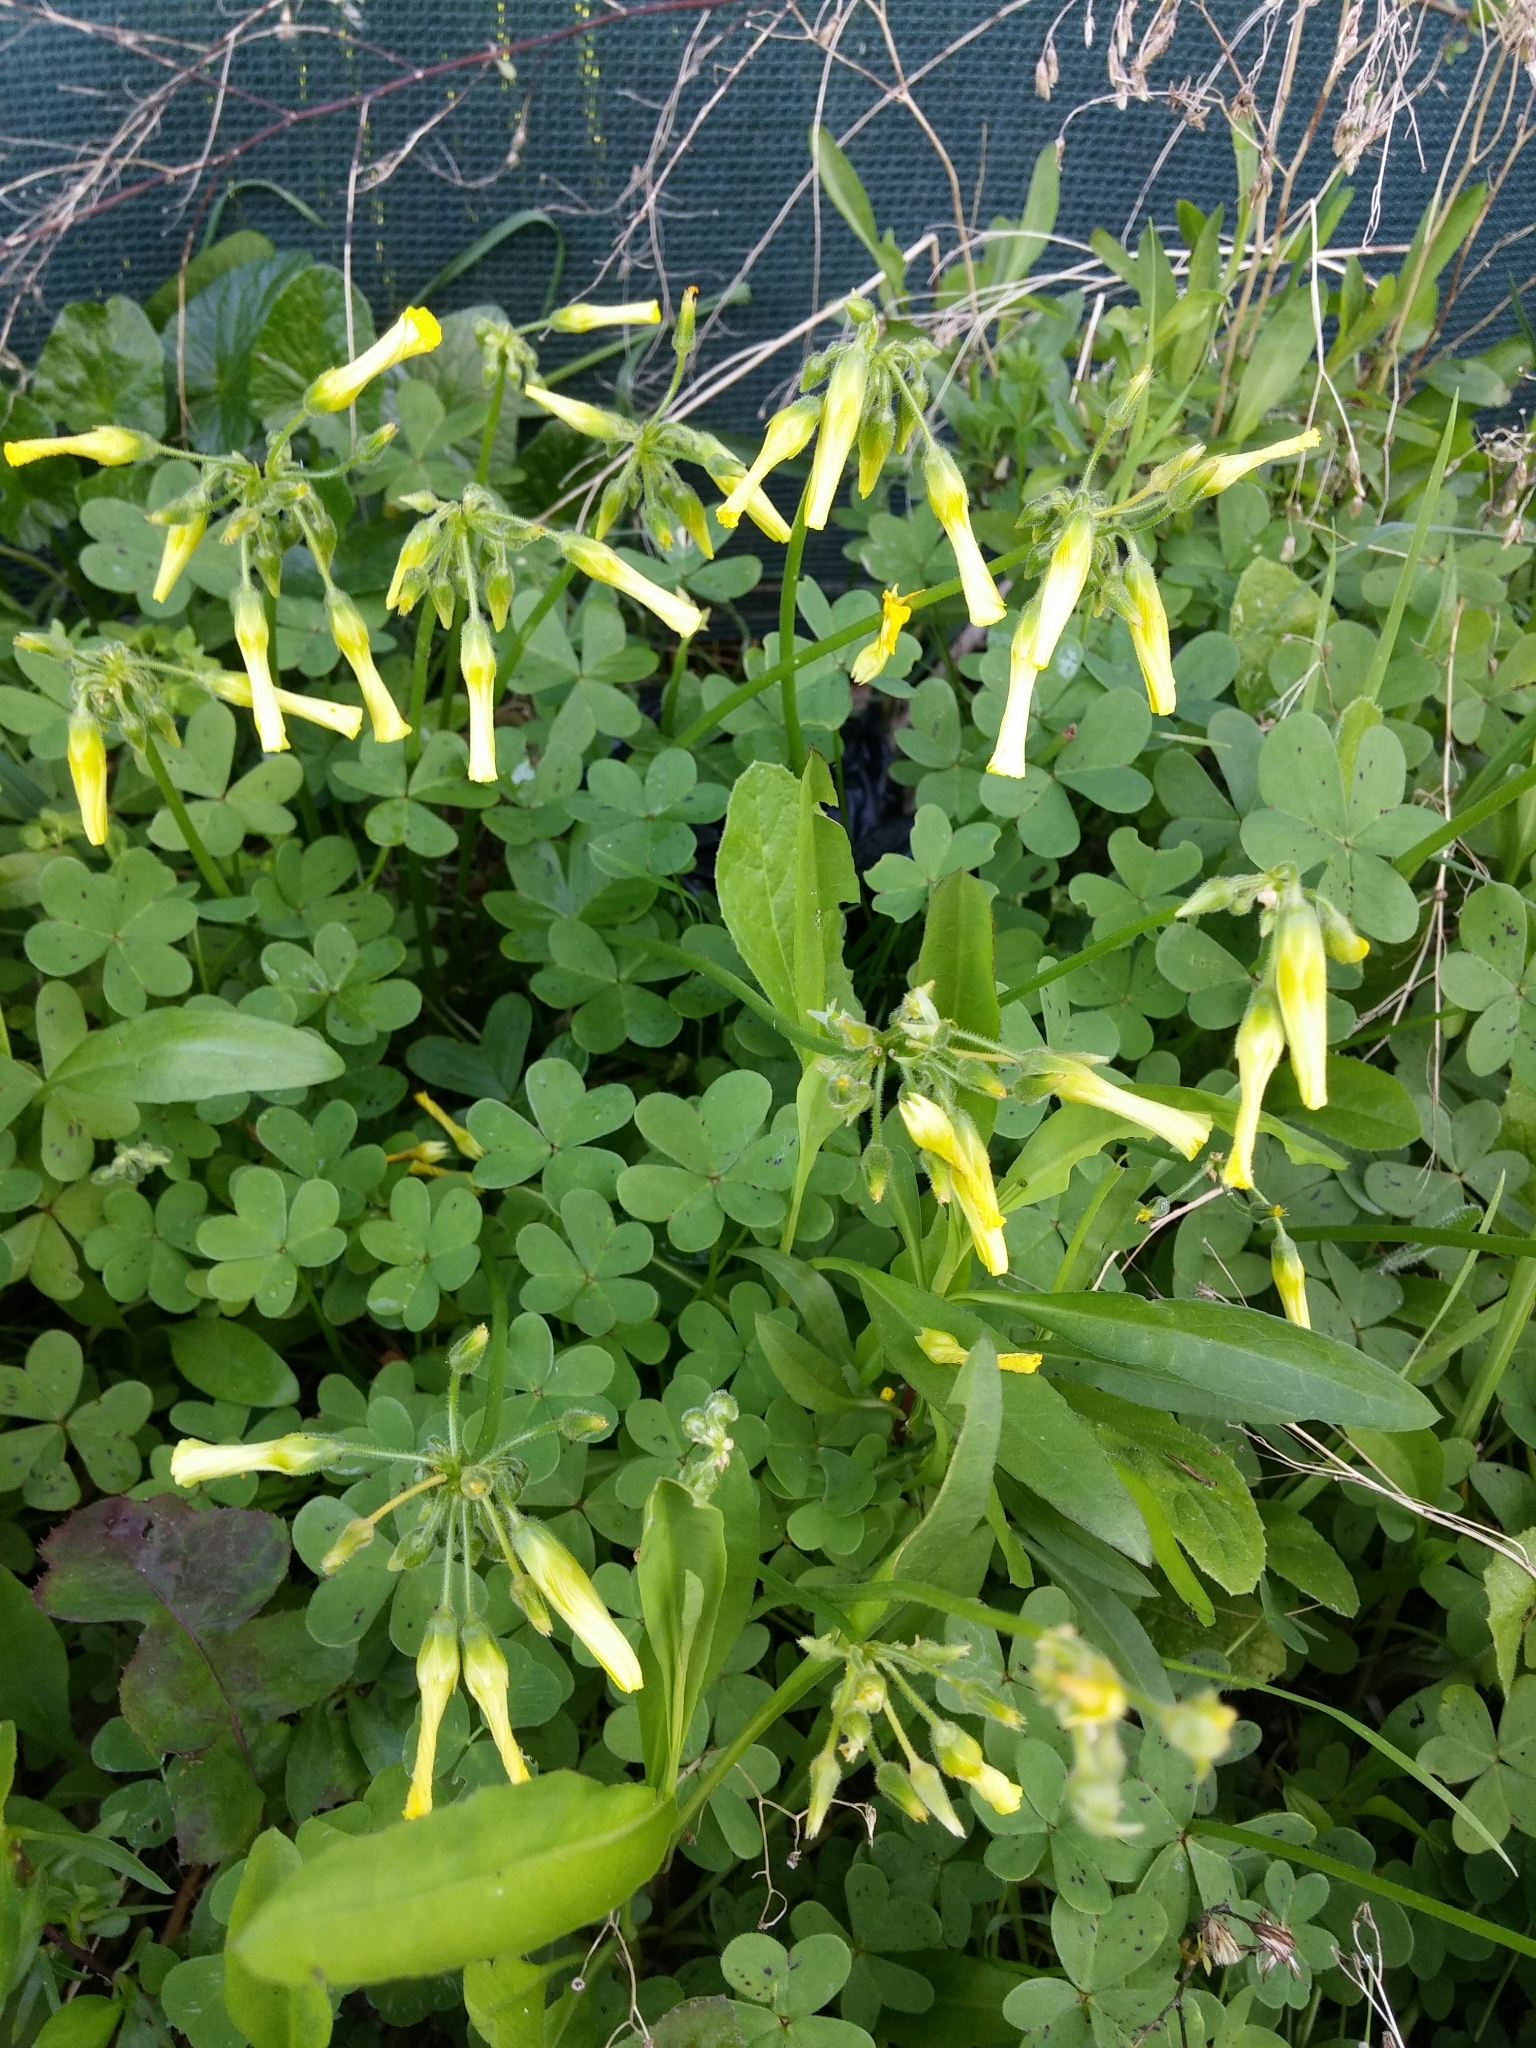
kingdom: Plantae
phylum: Tracheophyta
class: Magnoliopsida
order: Oxalidales
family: Oxalidaceae
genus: Oxalis
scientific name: Oxalis pes-caprae
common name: Bermuda-buttercup
